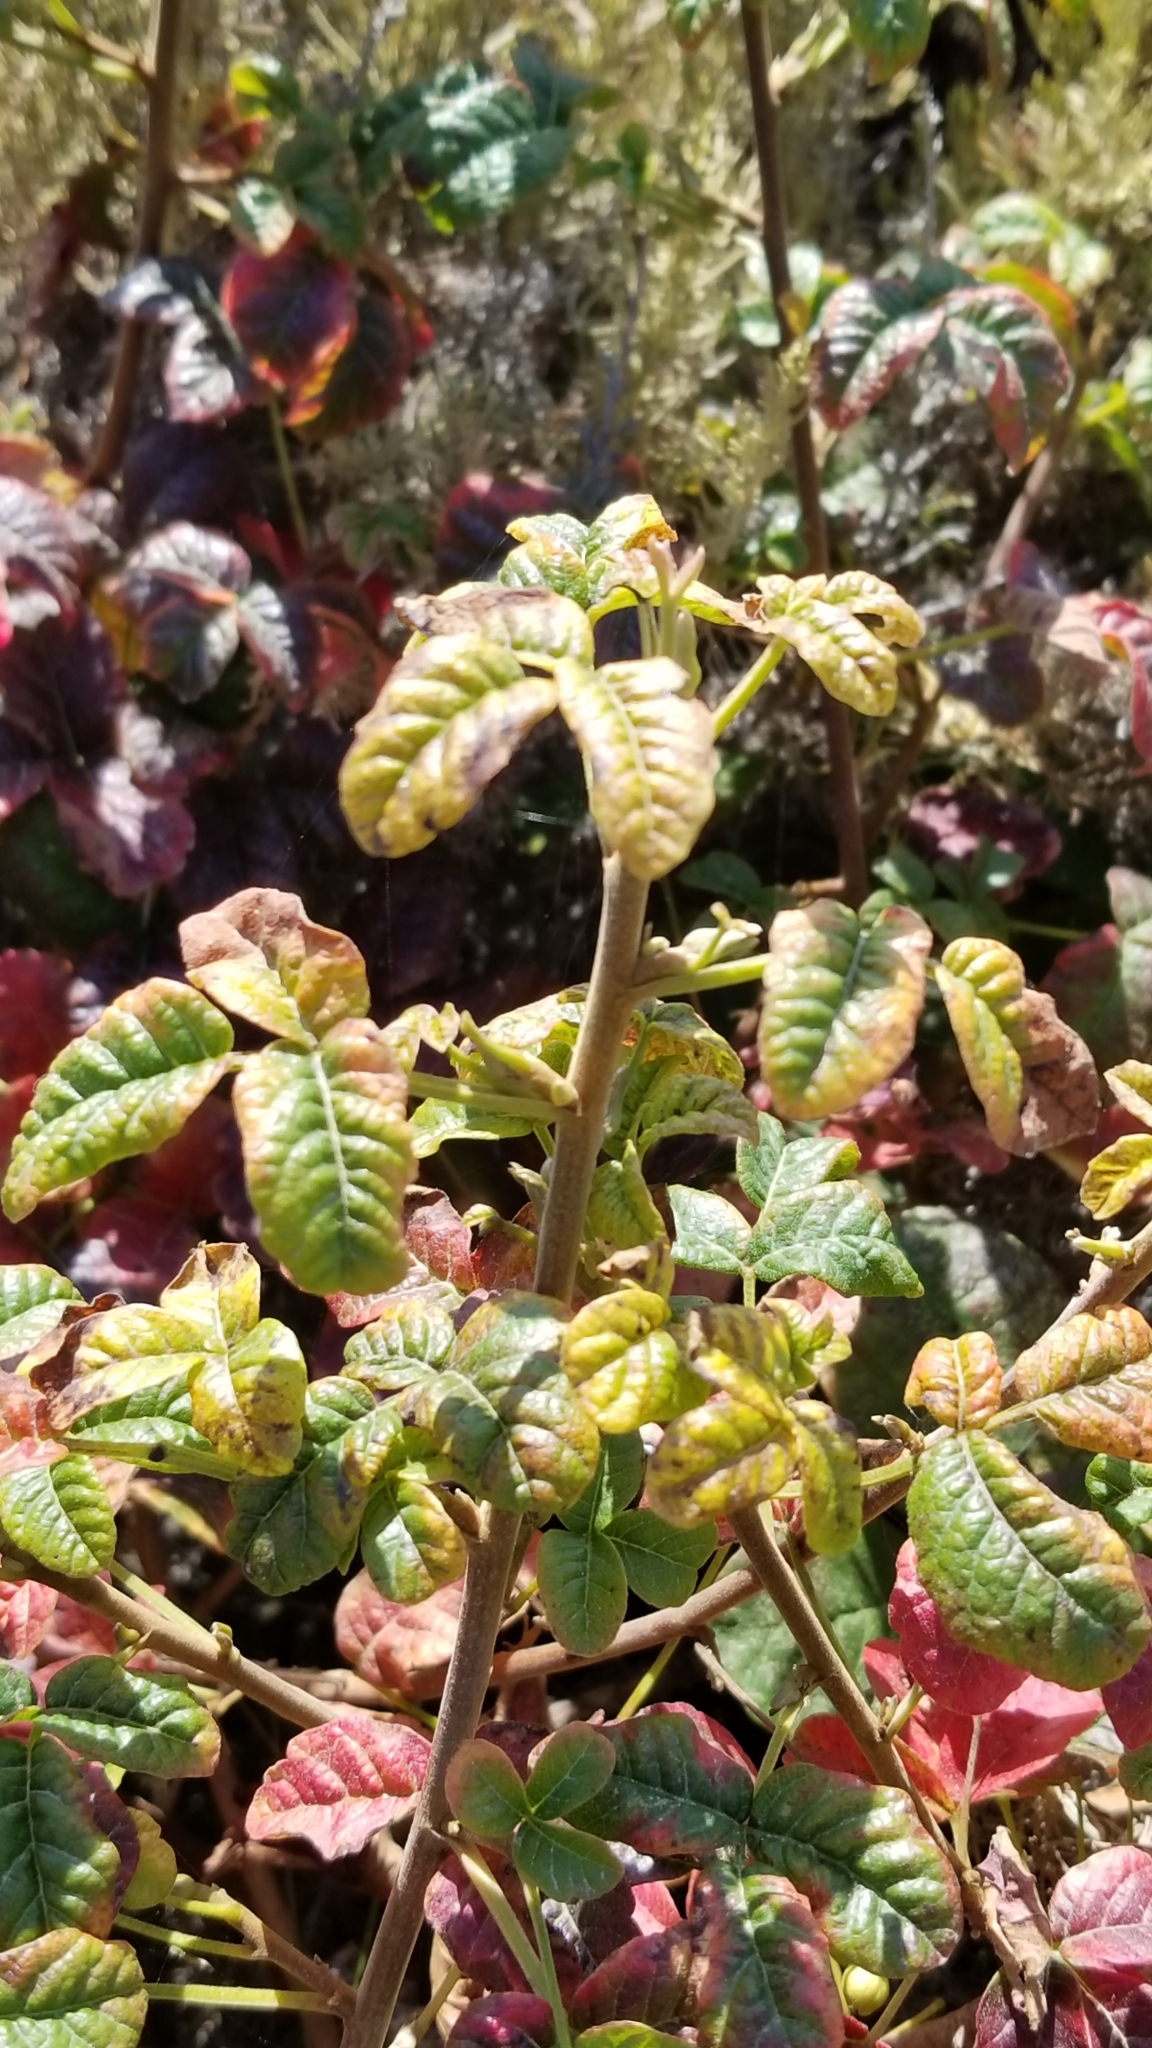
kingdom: Plantae
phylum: Tracheophyta
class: Magnoliopsida
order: Sapindales
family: Anacardiaceae
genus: Toxicodendron
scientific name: Toxicodendron diversilobum
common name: Pacific poison-oak
